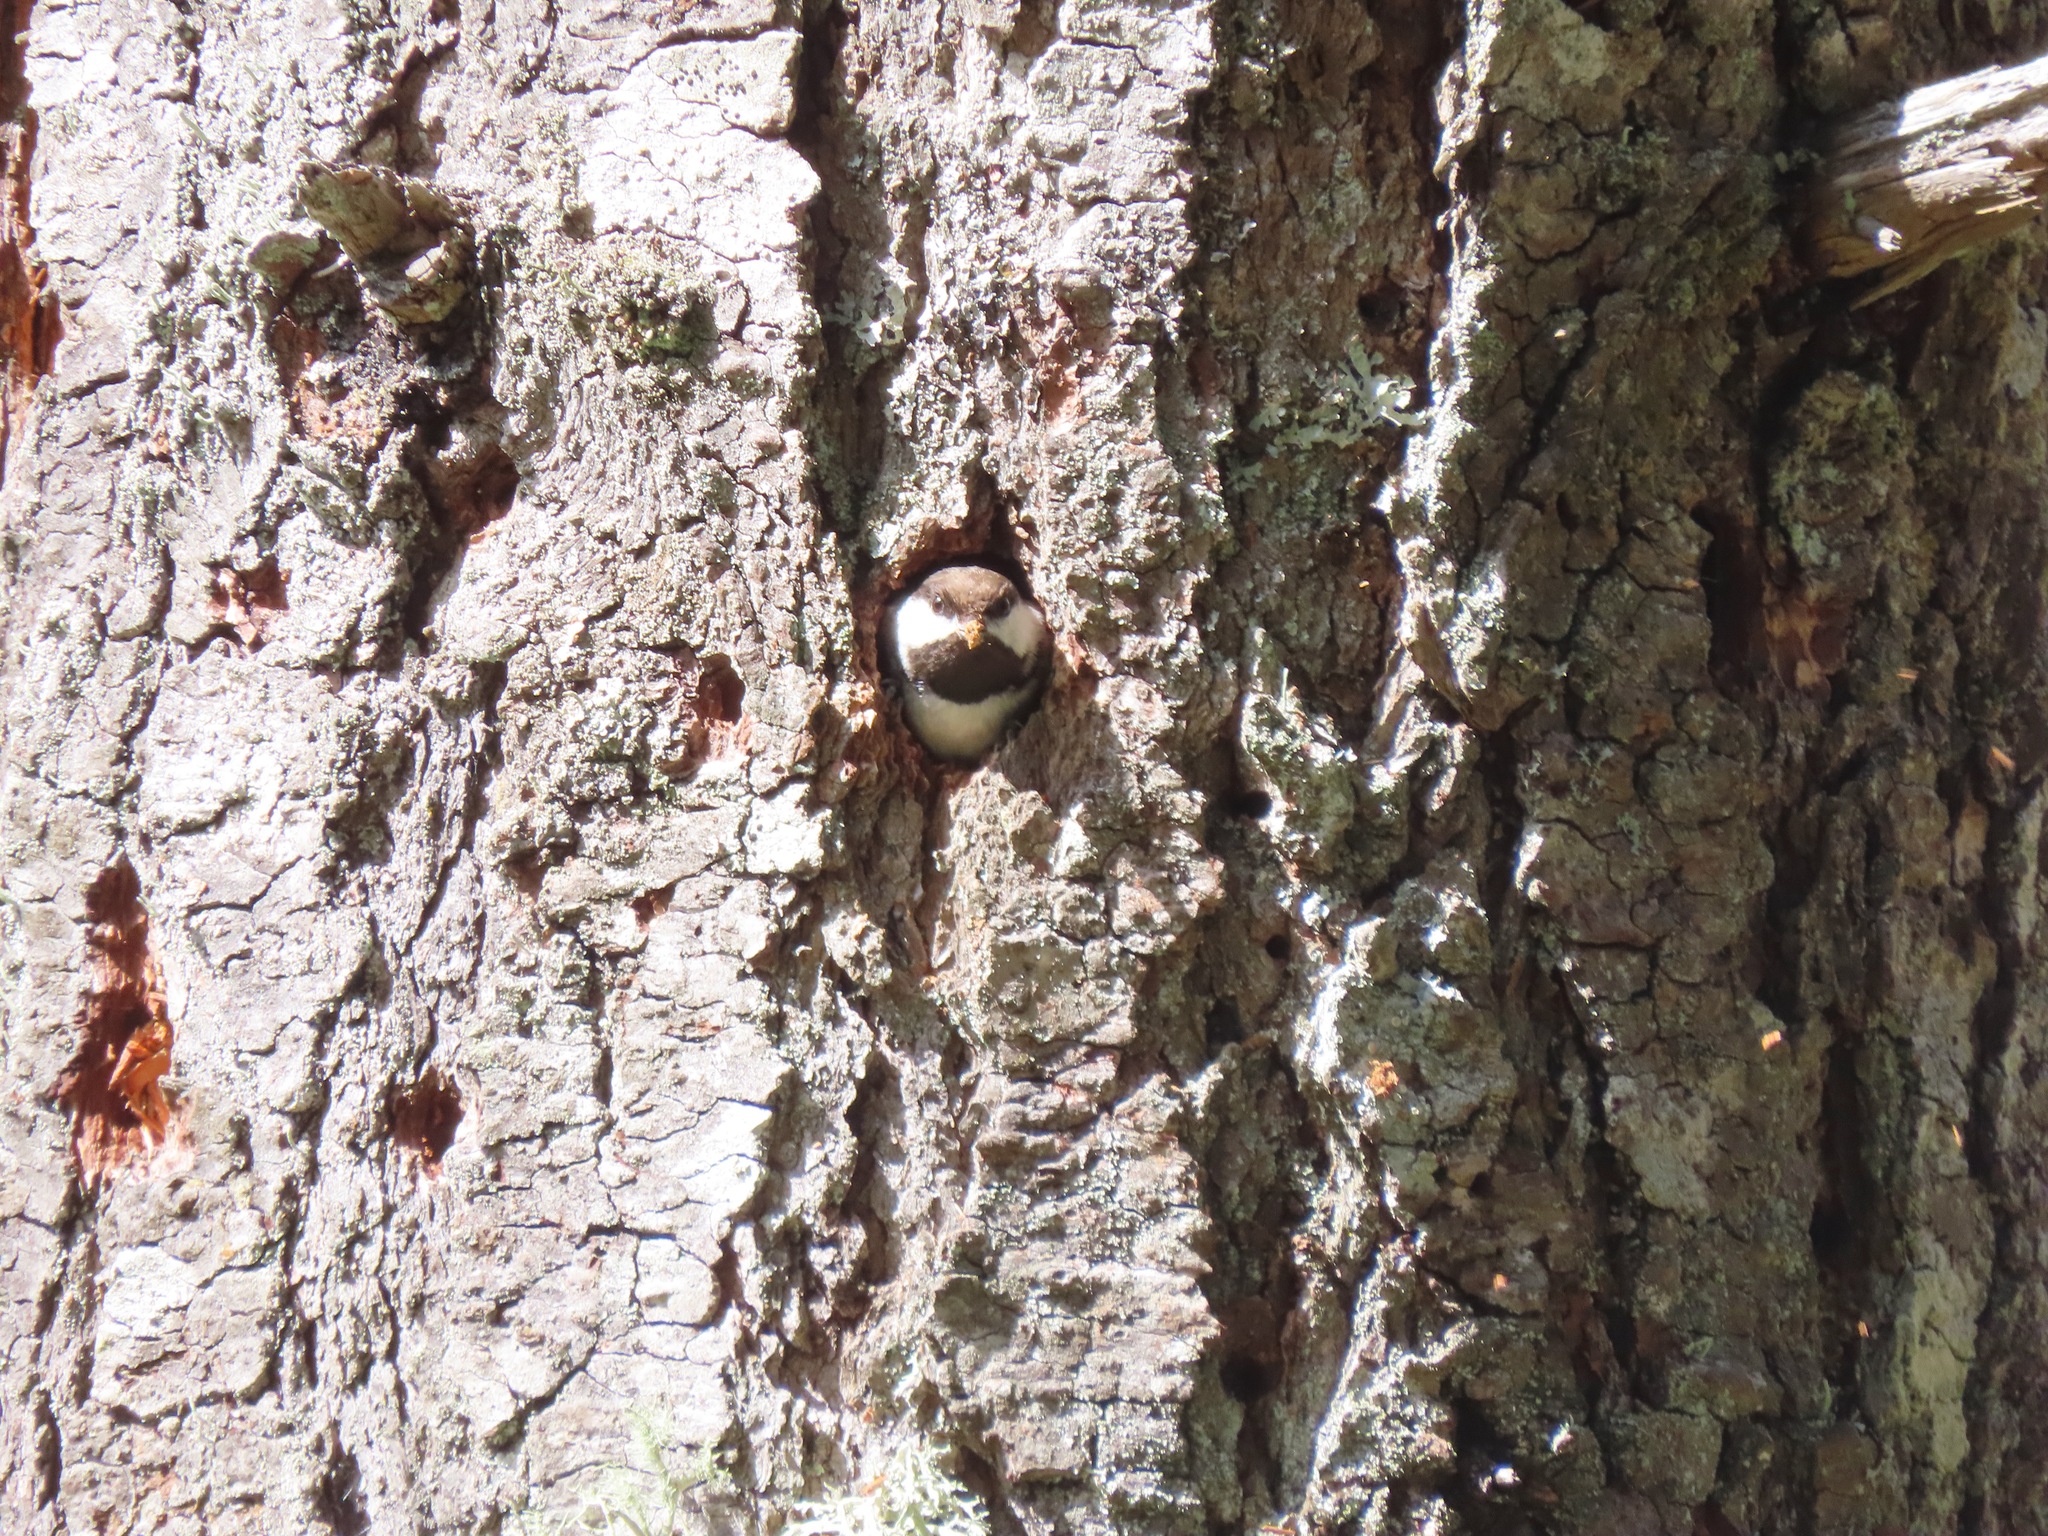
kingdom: Animalia
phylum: Chordata
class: Aves
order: Passeriformes
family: Paridae
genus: Poecile
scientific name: Poecile rufescens
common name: Chestnut-backed chickadee
